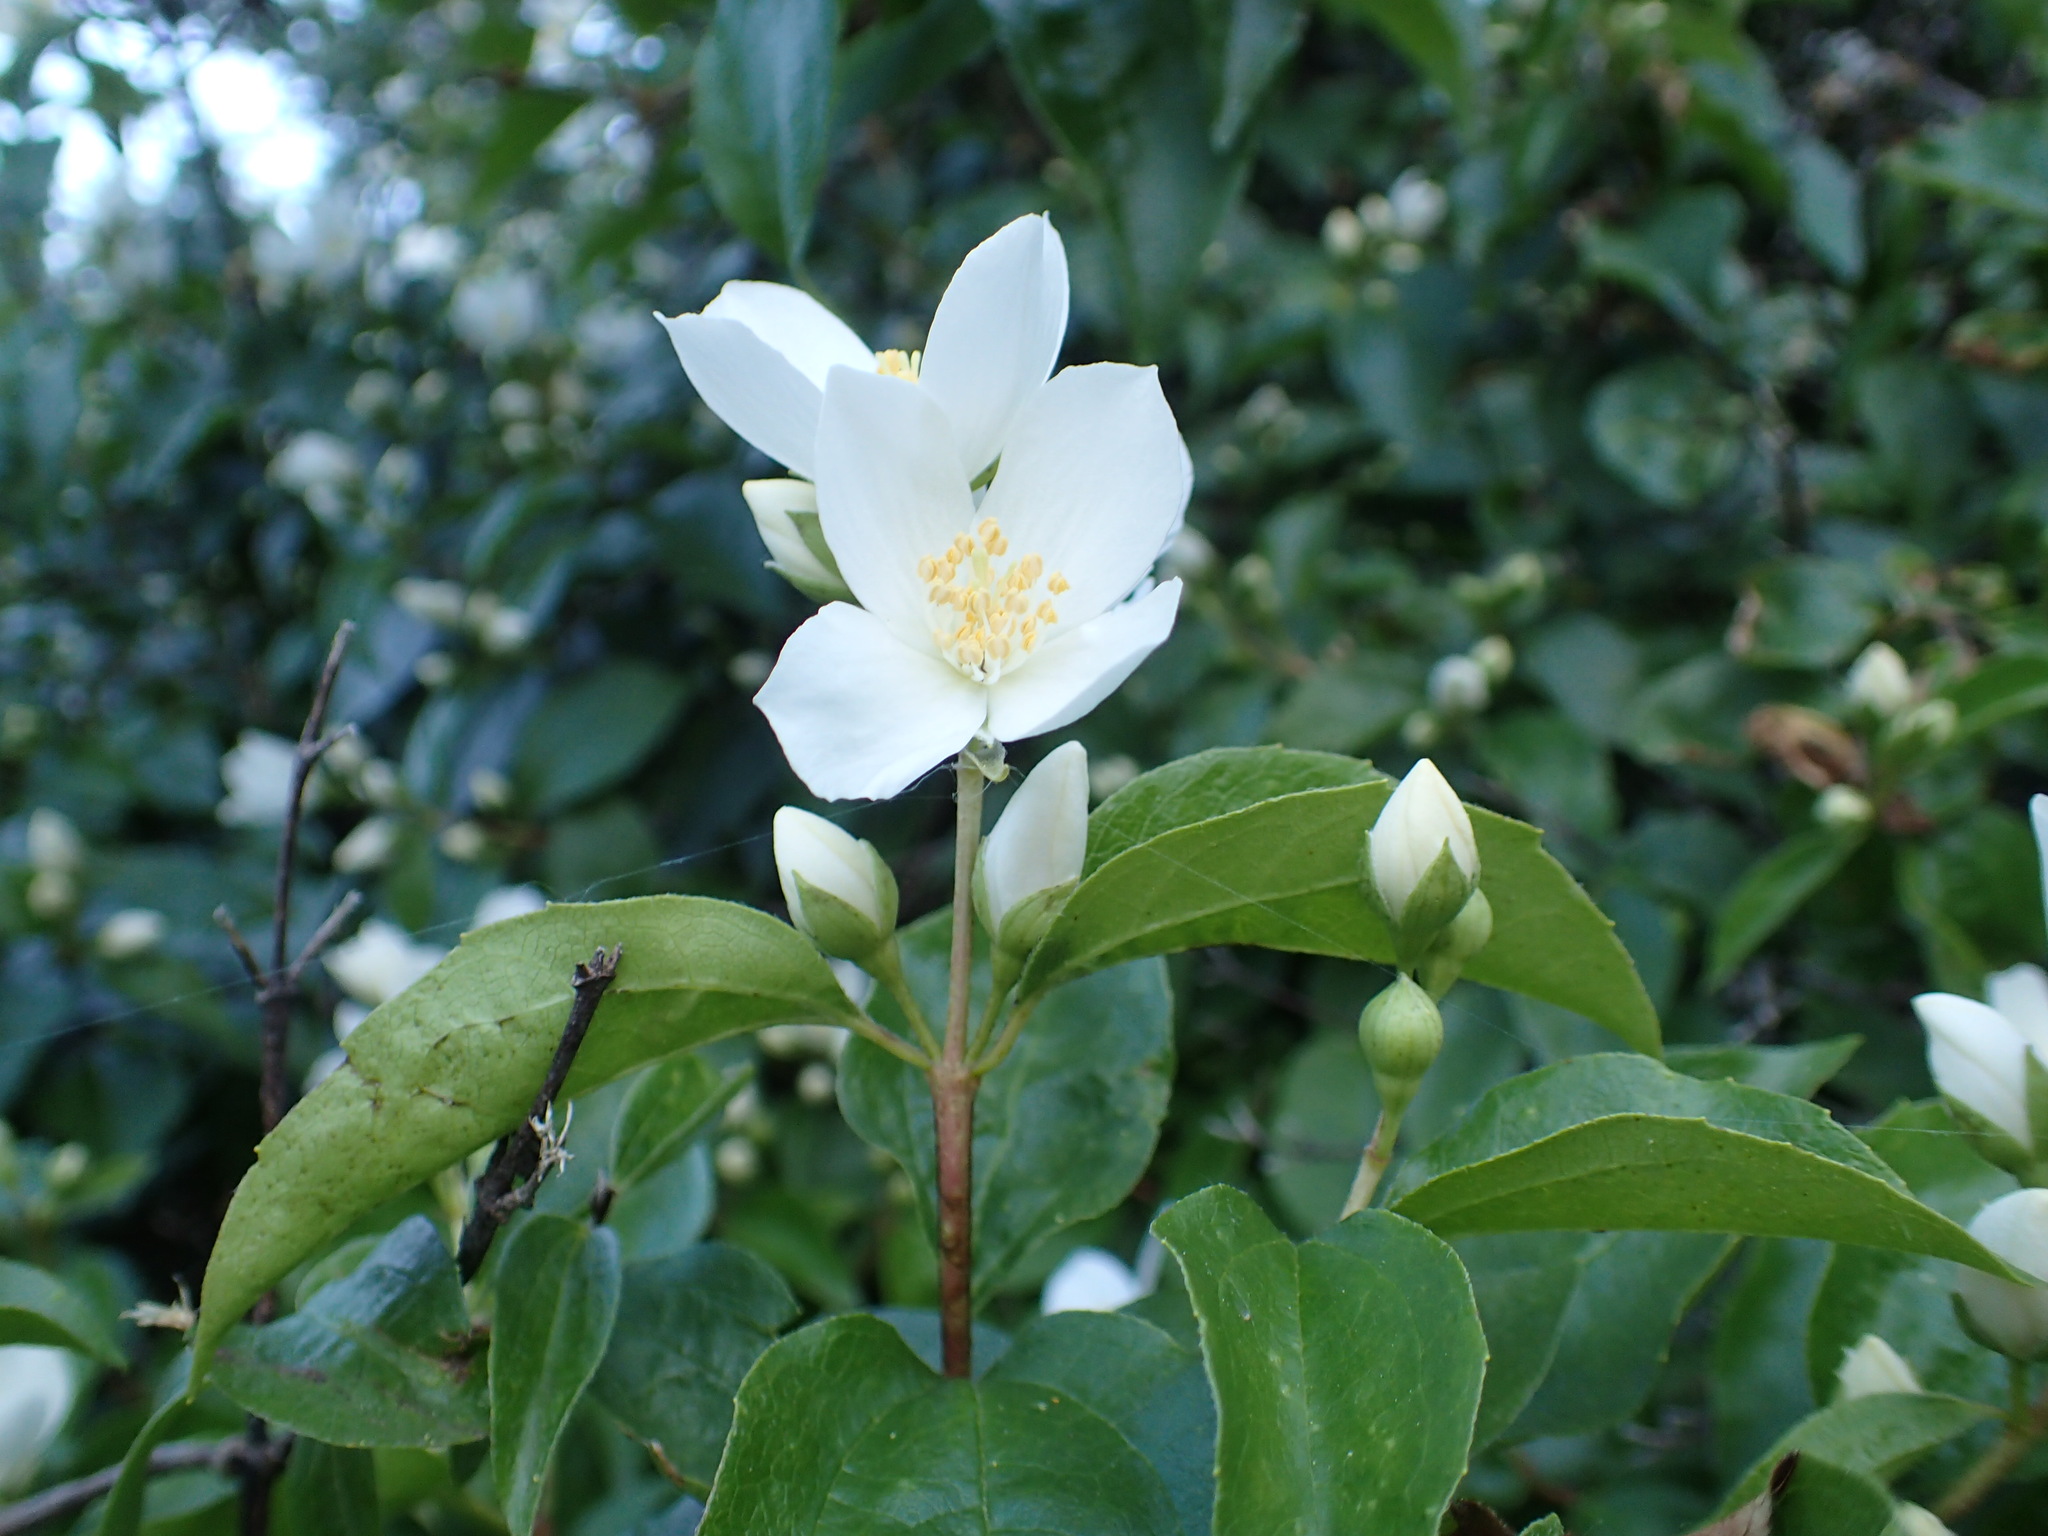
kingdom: Plantae
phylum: Tracheophyta
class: Magnoliopsida
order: Cornales
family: Hydrangeaceae
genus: Philadelphus
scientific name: Philadelphus lewisii
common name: Lewis's mock orange
